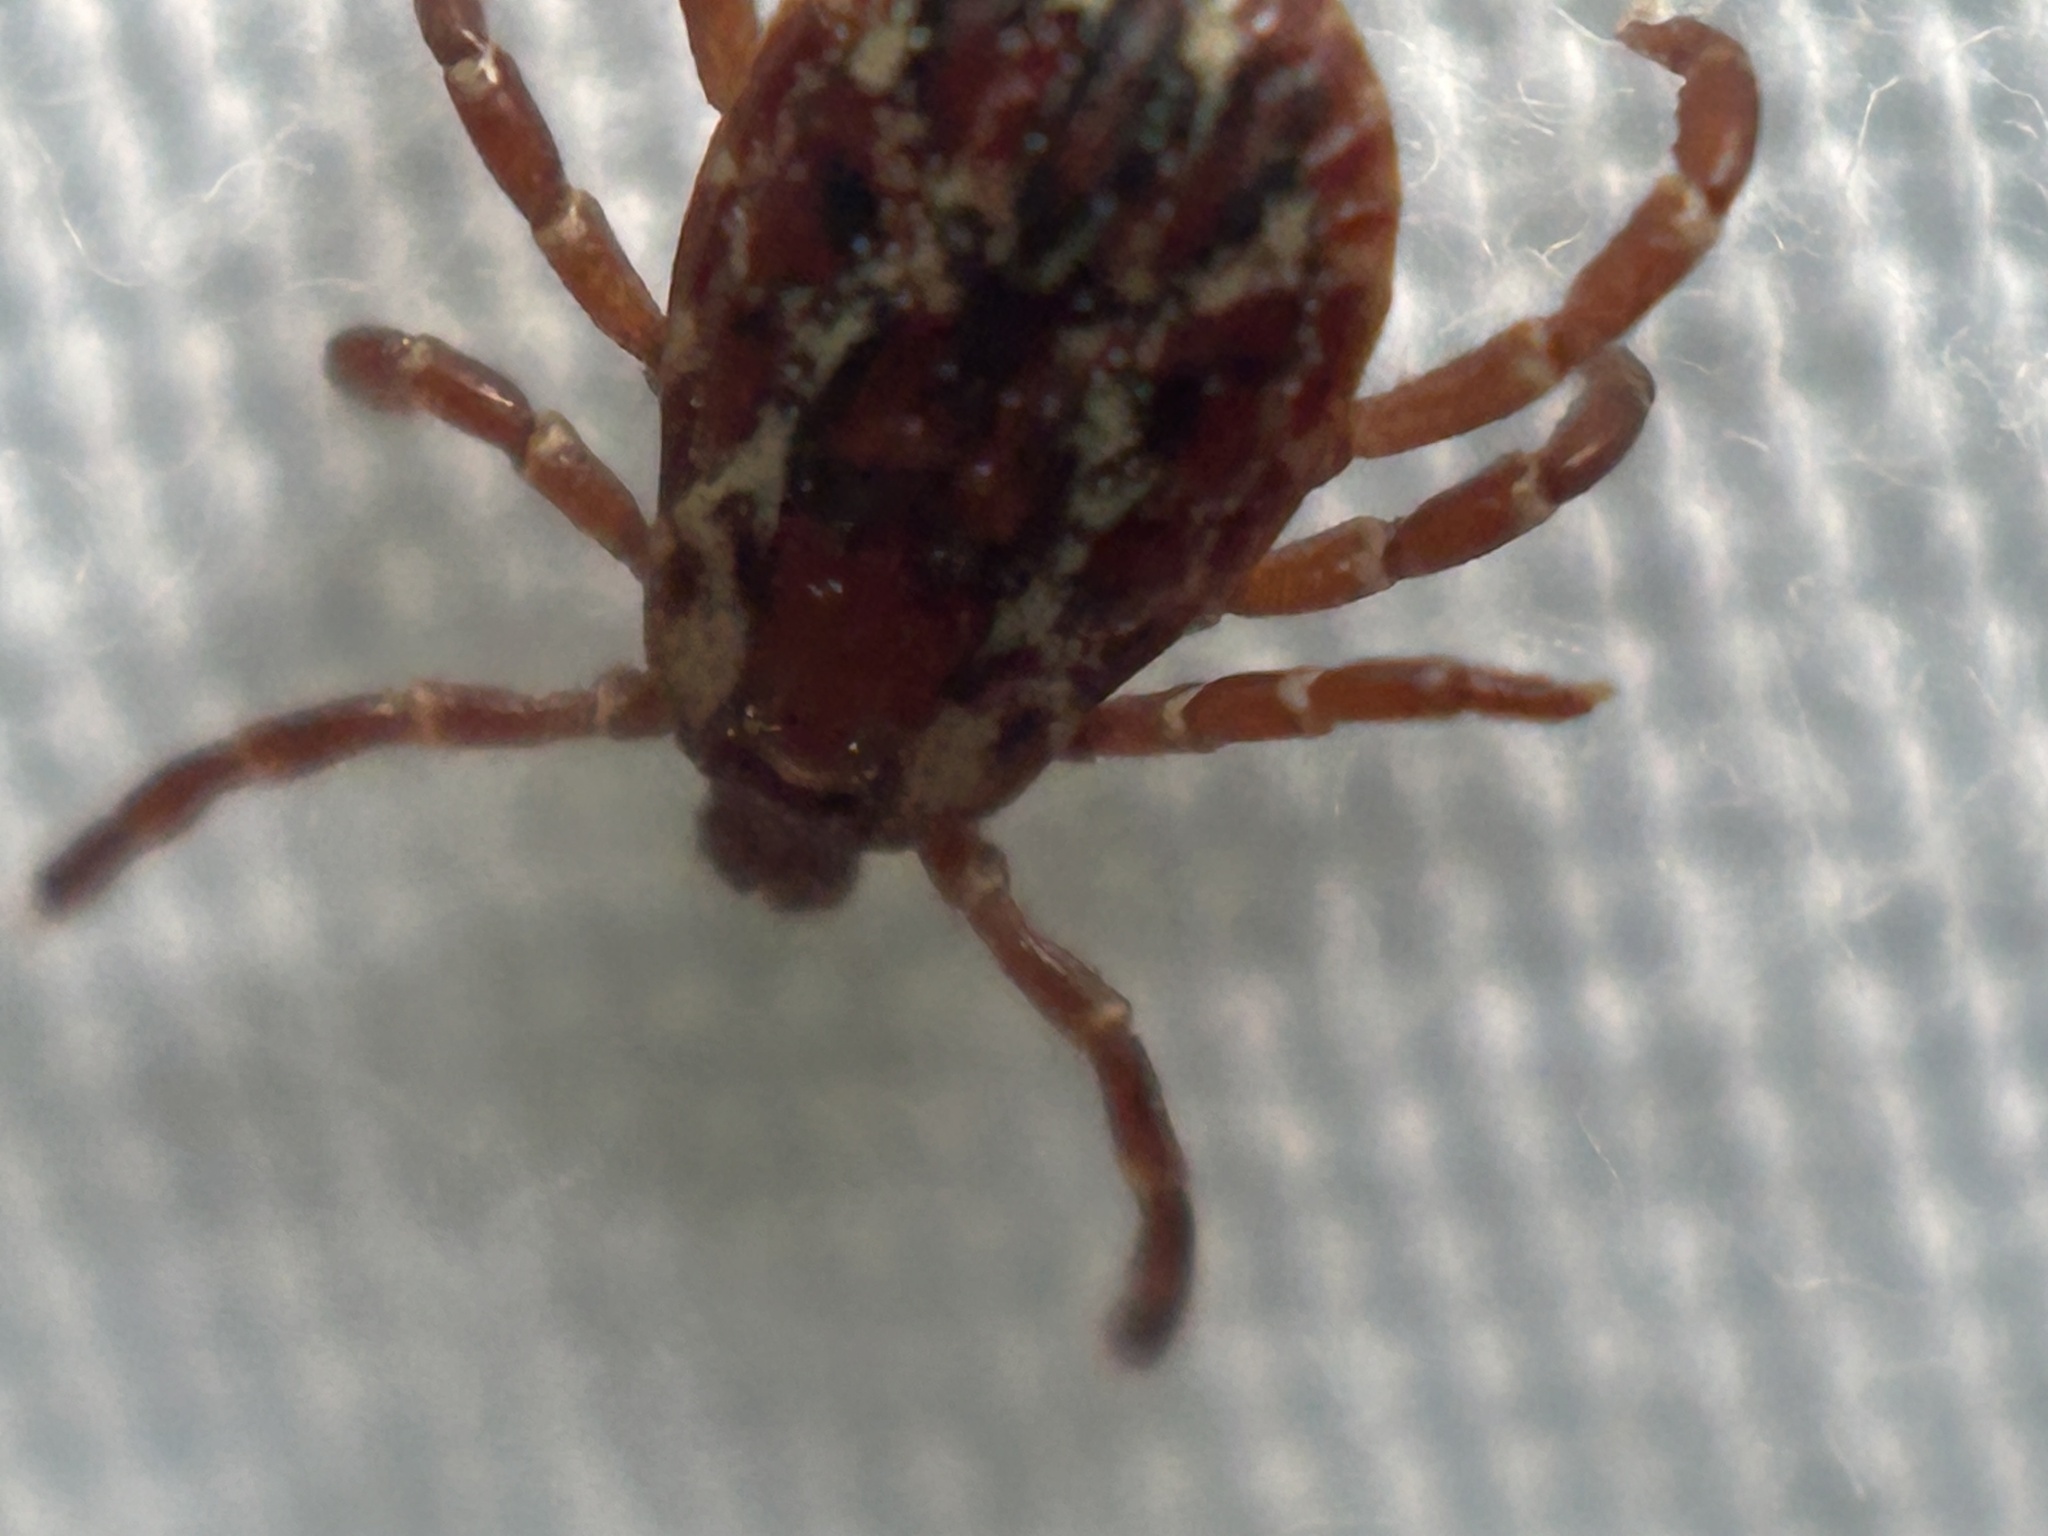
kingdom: Animalia
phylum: Arthropoda
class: Arachnida
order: Ixodida
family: Ixodidae
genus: Dermacentor
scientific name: Dermacentor variabilis
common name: American dog tick
